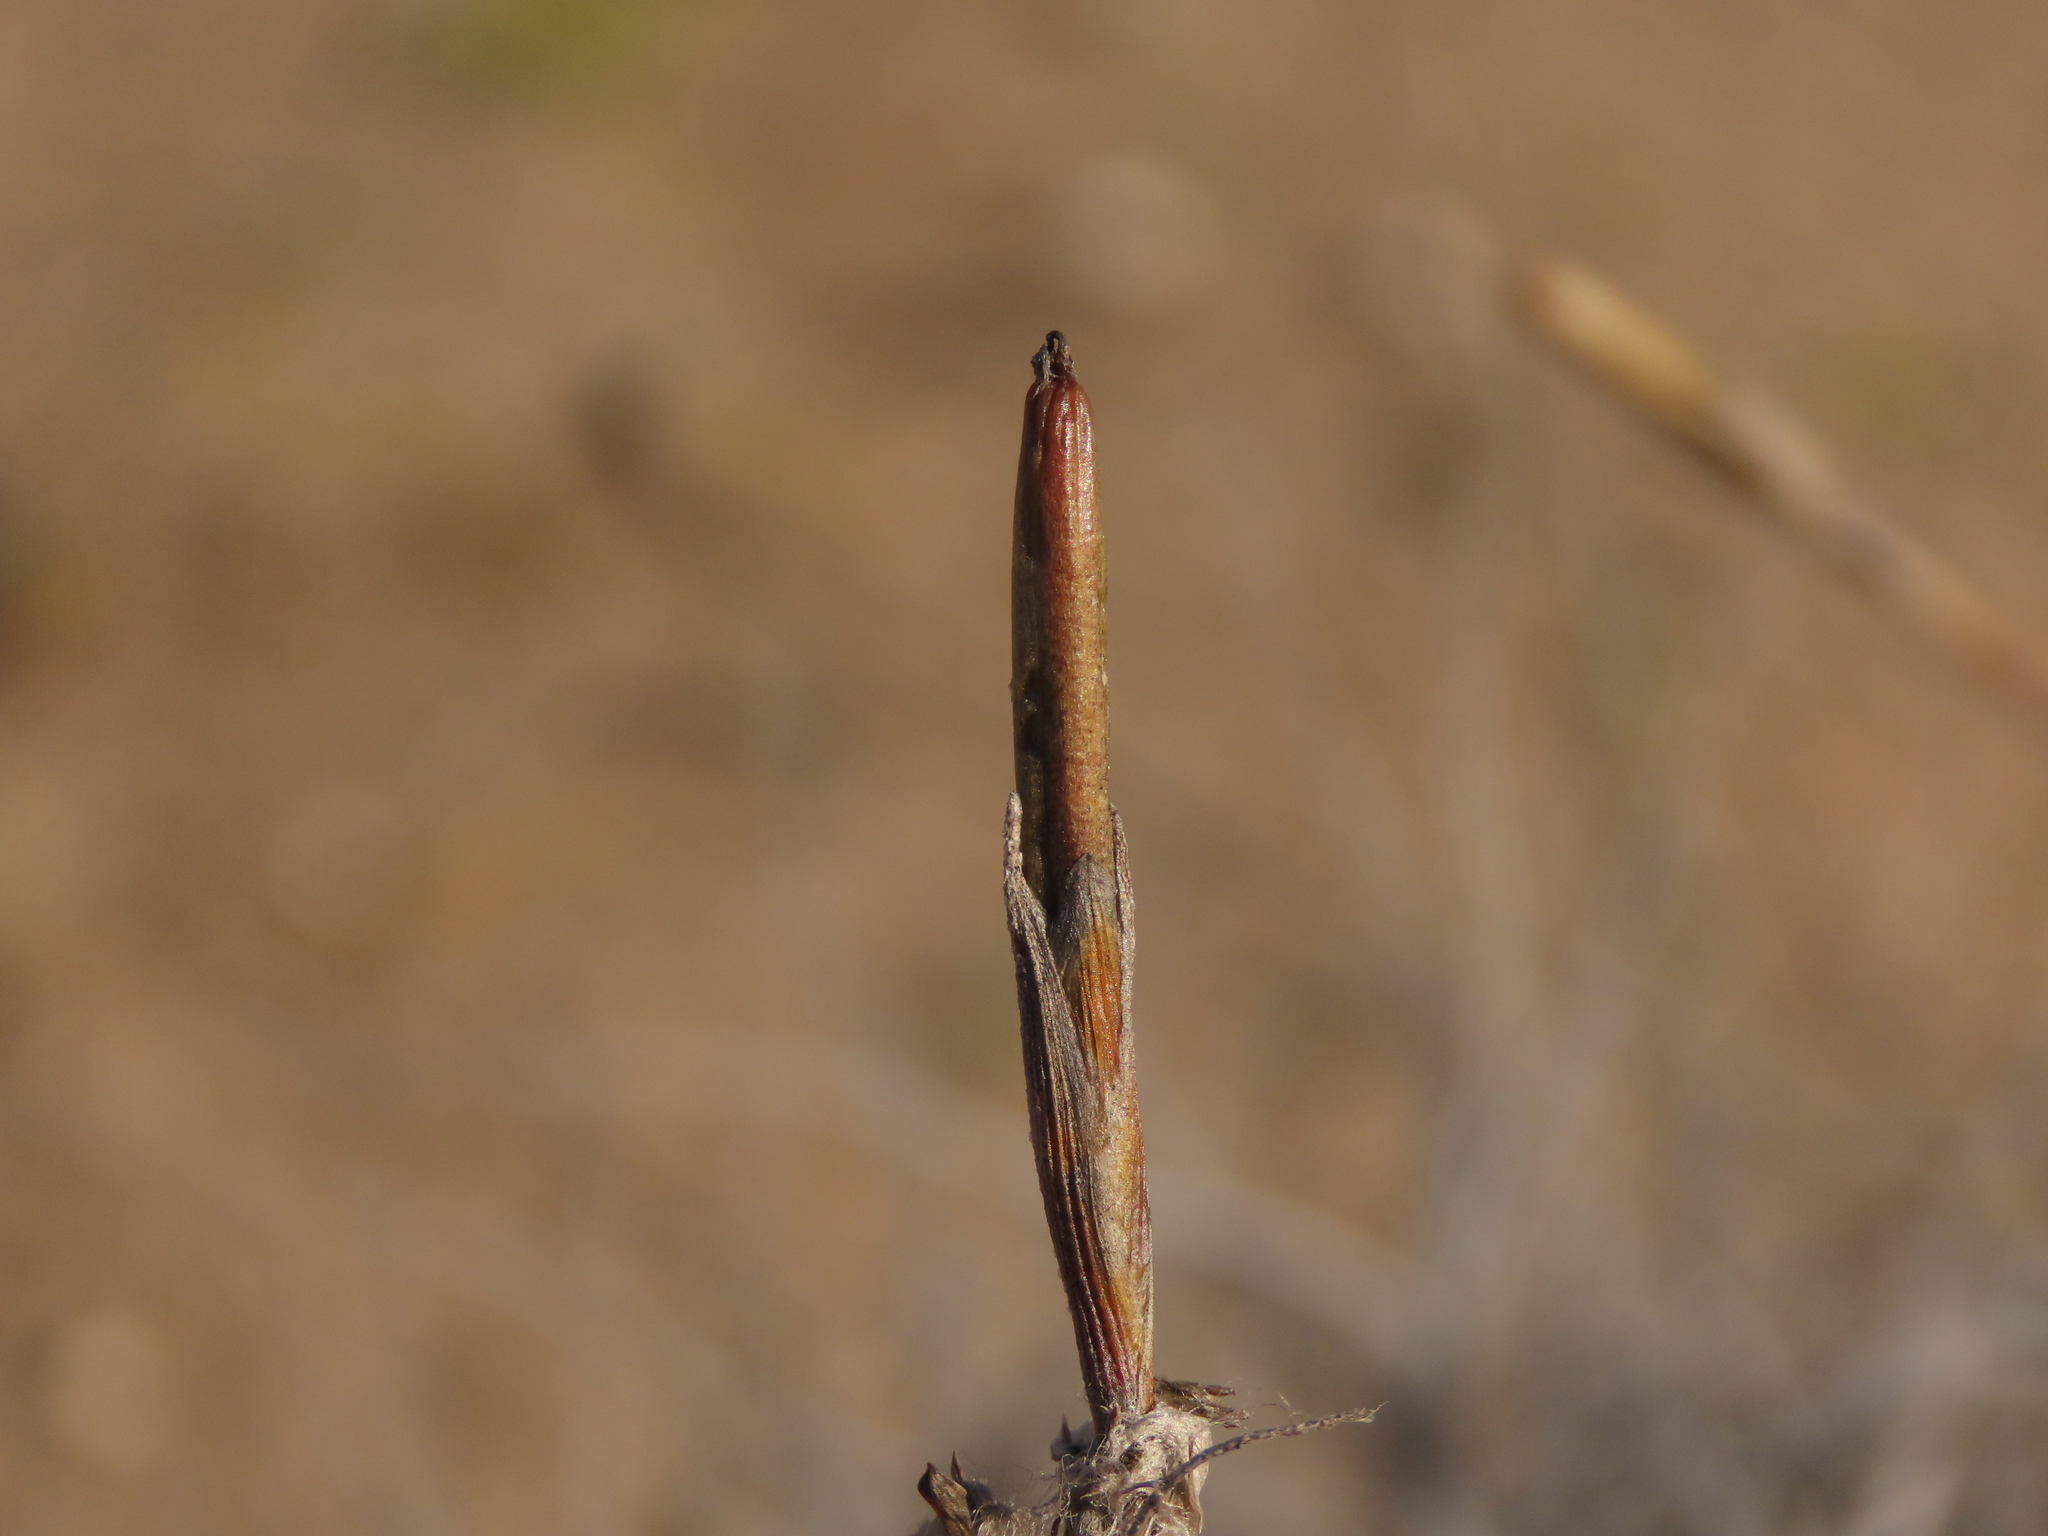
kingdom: Plantae
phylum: Tracheophyta
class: Liliopsida
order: Poales
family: Bromeliaceae
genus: Tillandsia
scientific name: Tillandsia landbeckii
